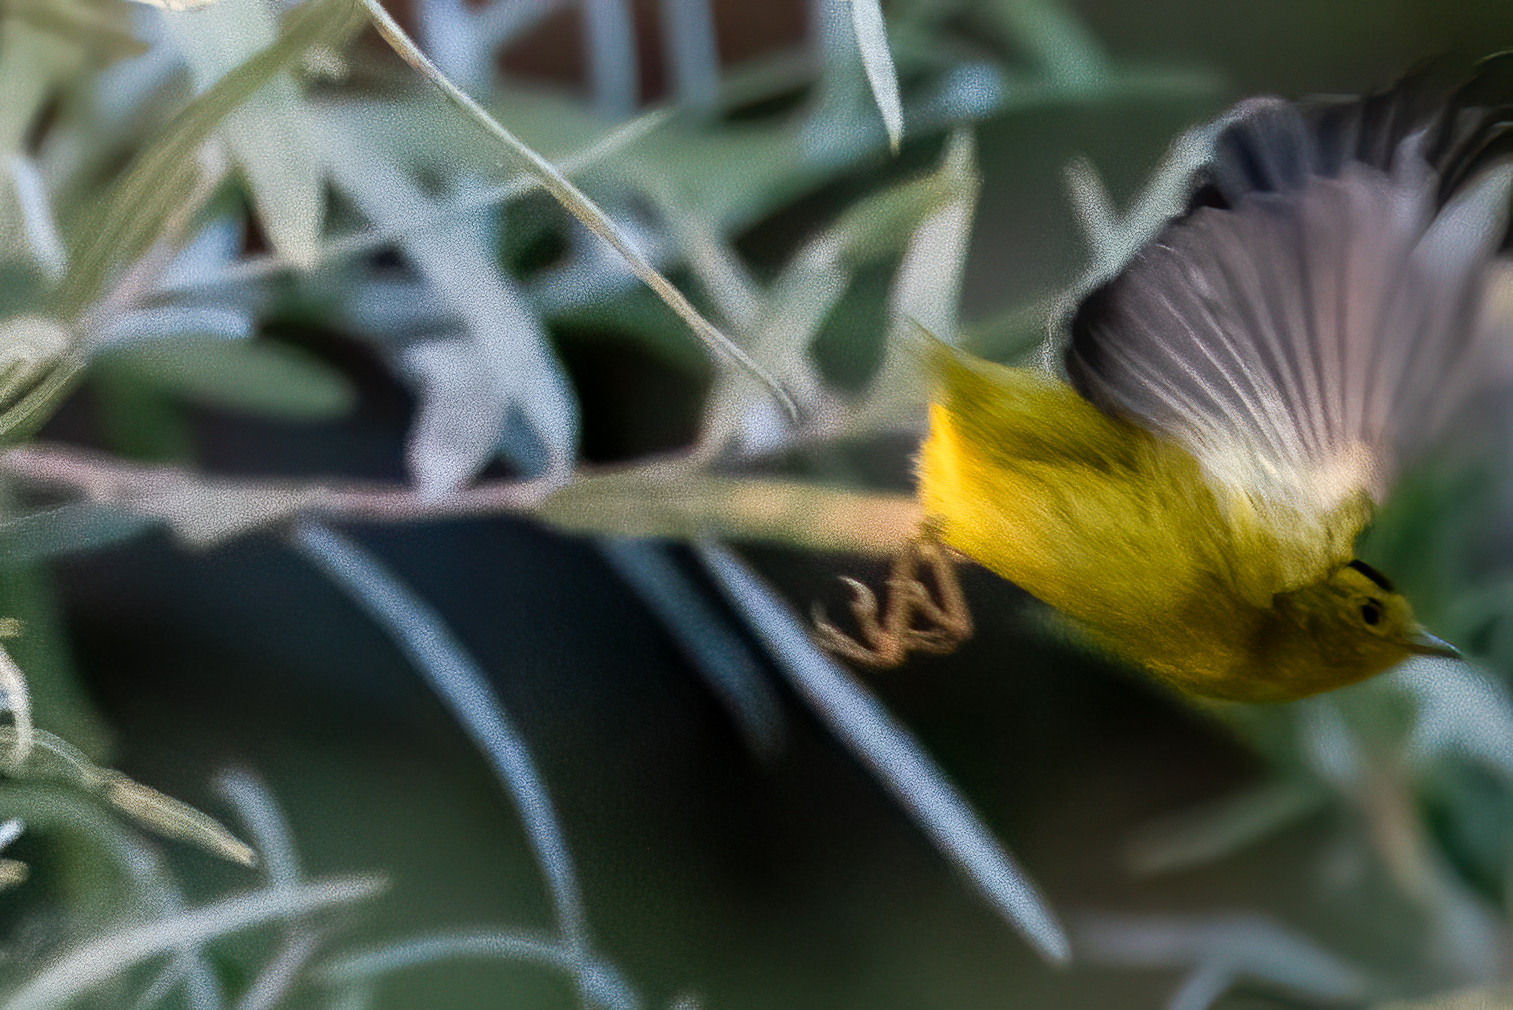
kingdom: Animalia
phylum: Chordata
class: Aves
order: Passeriformes
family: Parulidae
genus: Cardellina
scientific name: Cardellina pusilla
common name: Wilson's warbler
